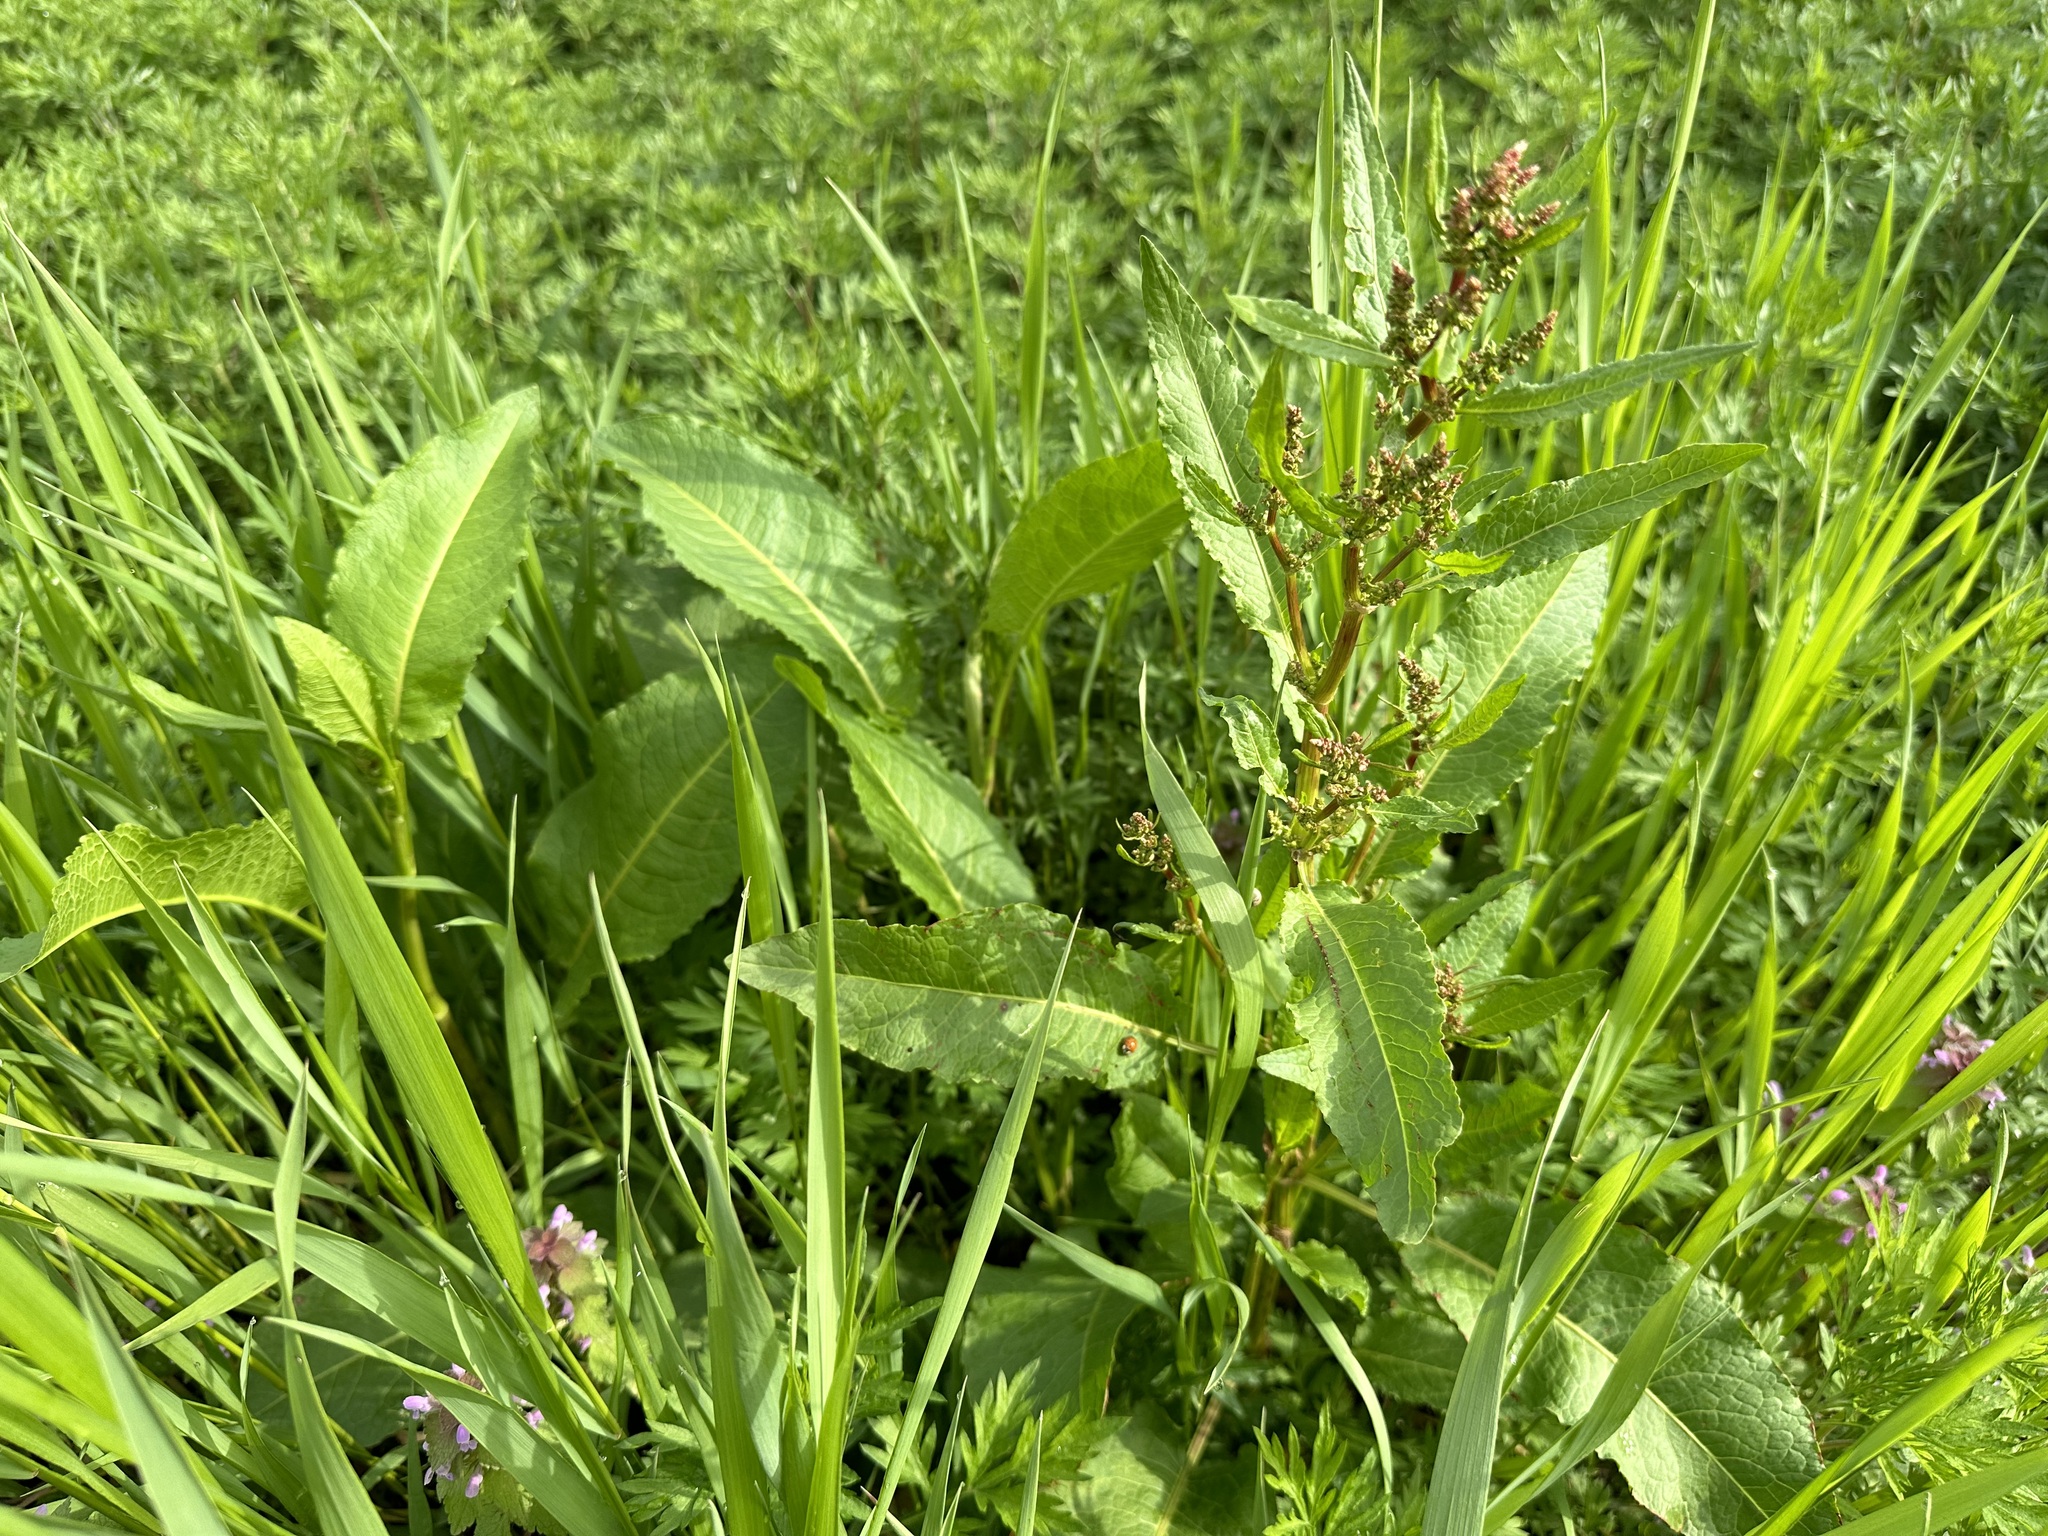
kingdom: Plantae
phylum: Tracheophyta
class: Magnoliopsida
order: Caryophyllales
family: Polygonaceae
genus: Rumex
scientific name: Rumex obtusifolius
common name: Bitter dock
